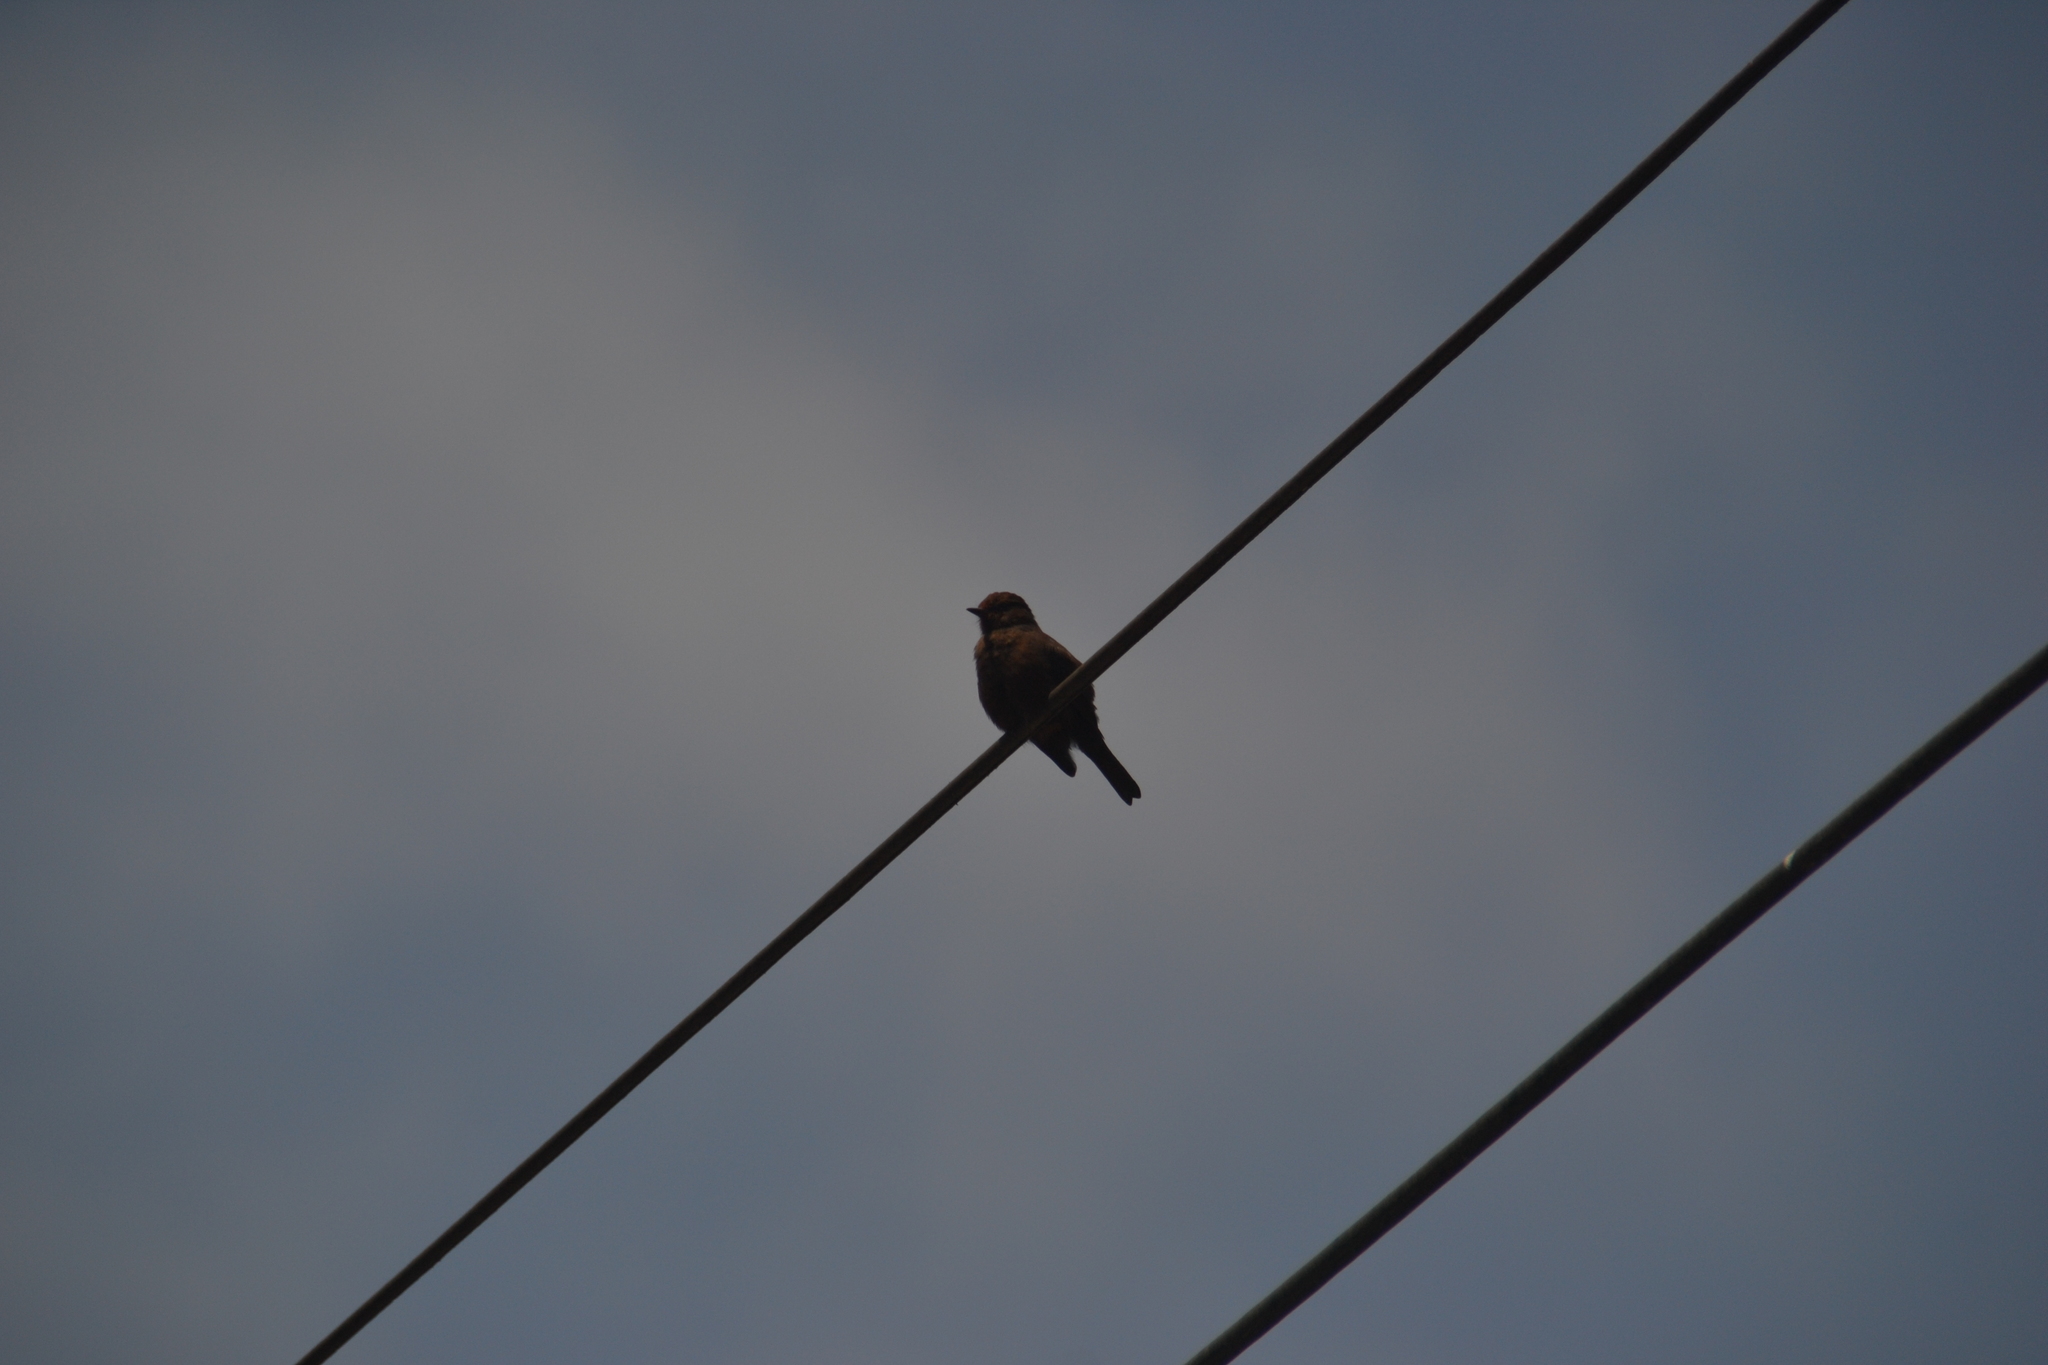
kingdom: Animalia
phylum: Chordata
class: Aves
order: Passeriformes
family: Tyrannidae
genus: Pyrocephalus
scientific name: Pyrocephalus rubinus
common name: Vermilion flycatcher
